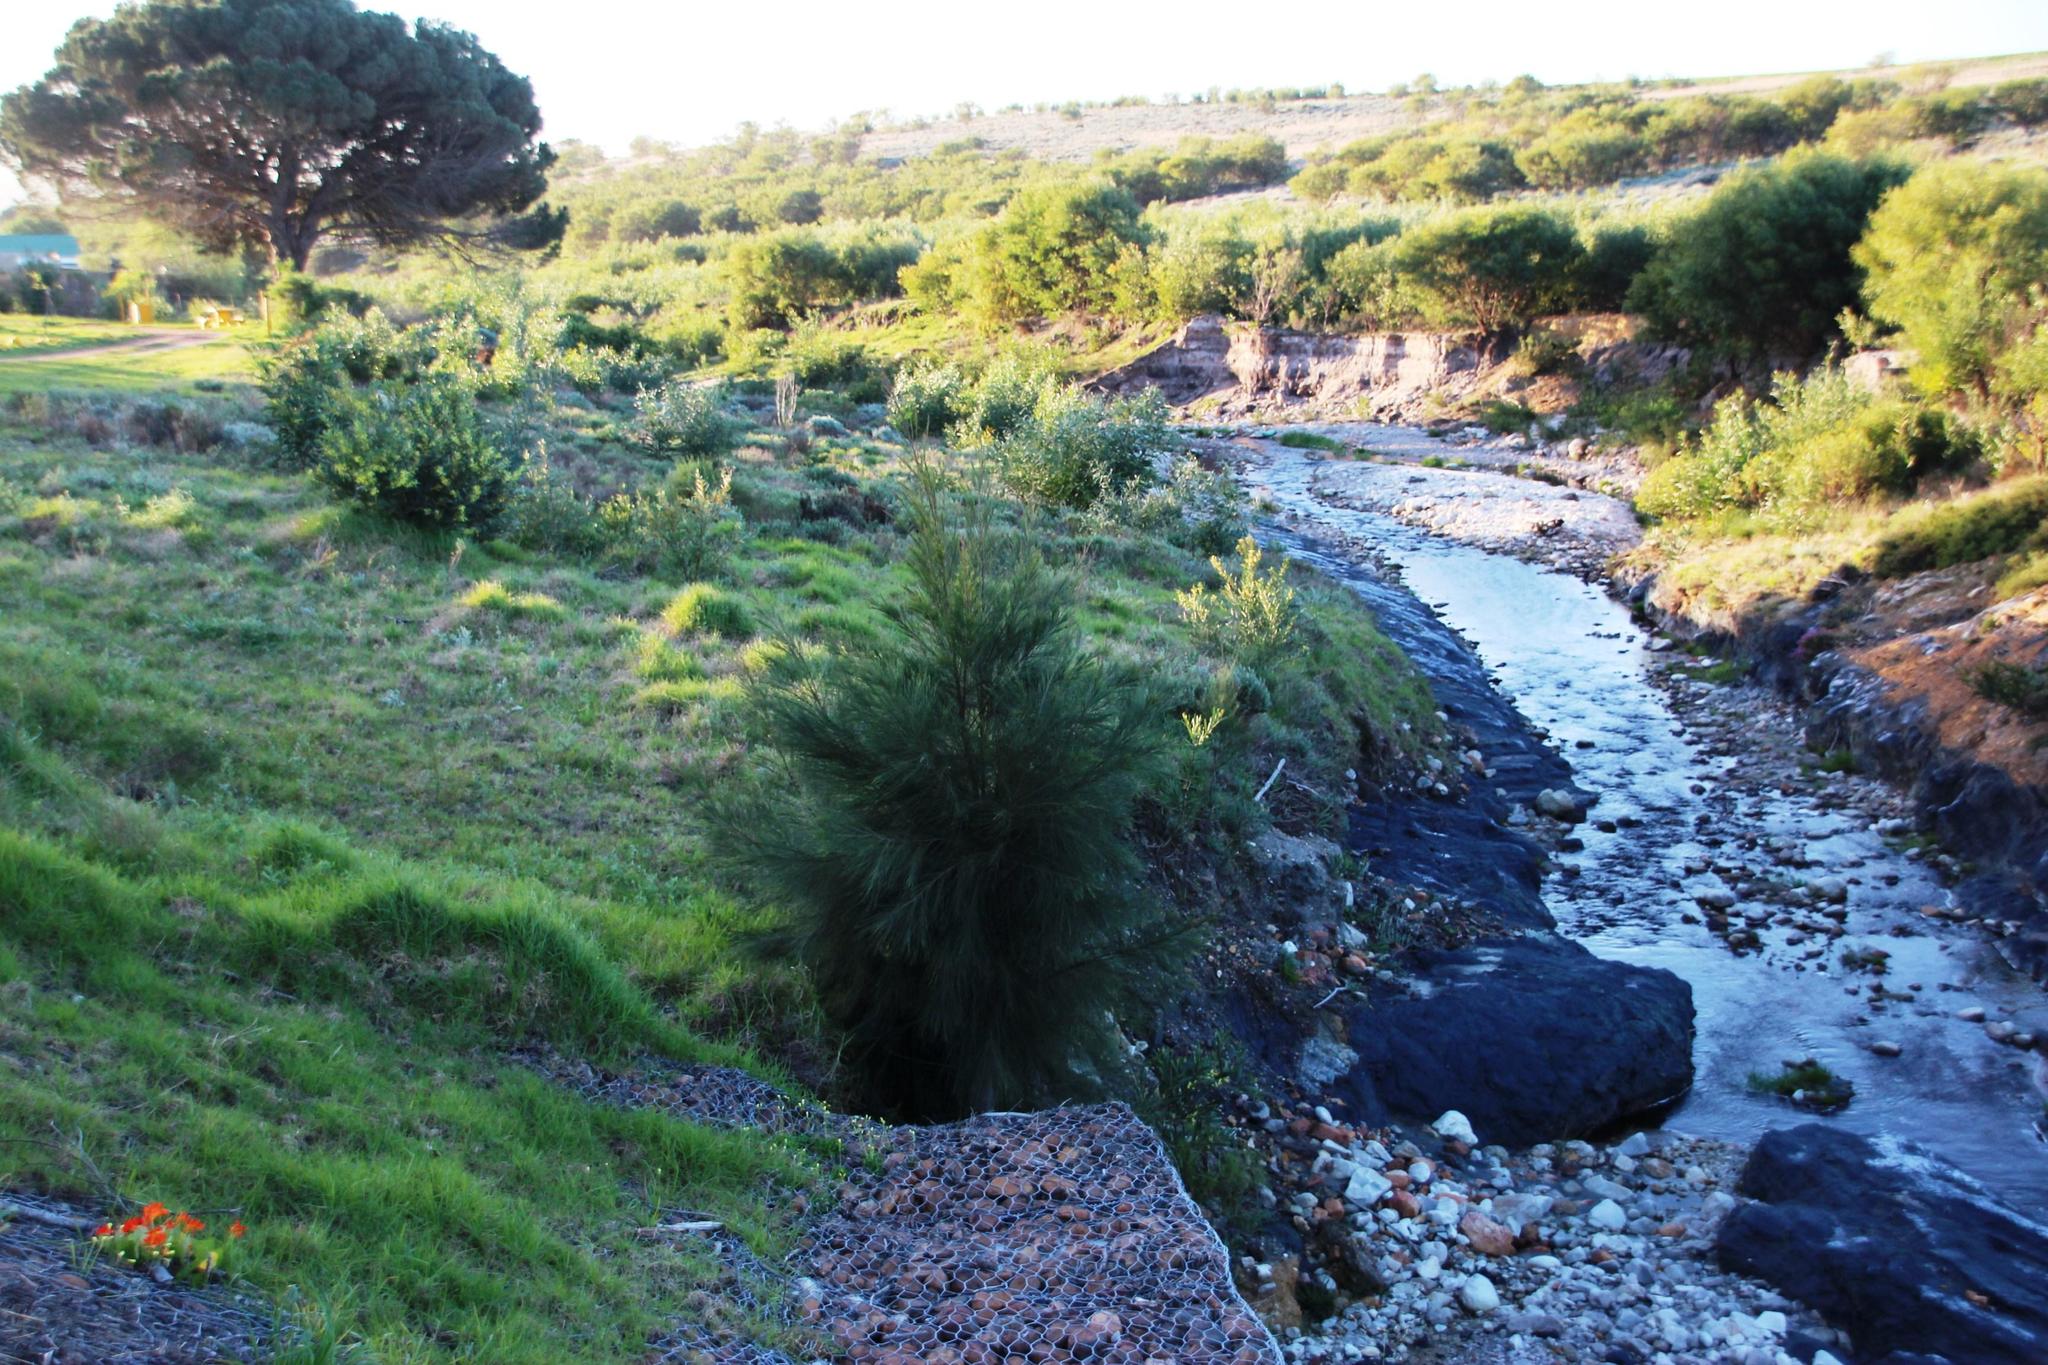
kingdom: Plantae
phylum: Tracheophyta
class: Magnoliopsida
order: Fagales
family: Casuarinaceae
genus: Casuarina
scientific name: Casuarina cunninghamiana
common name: River sheoak
